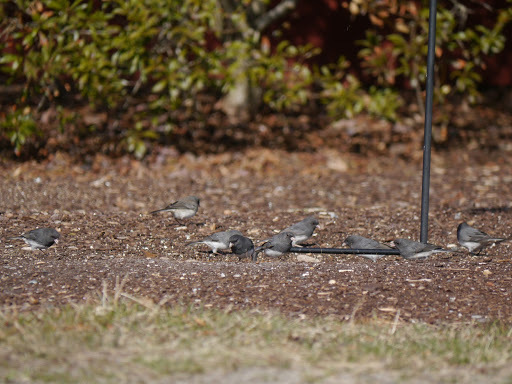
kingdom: Animalia
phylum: Chordata
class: Aves
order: Passeriformes
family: Passerellidae
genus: Junco
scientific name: Junco hyemalis
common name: Dark-eyed junco
